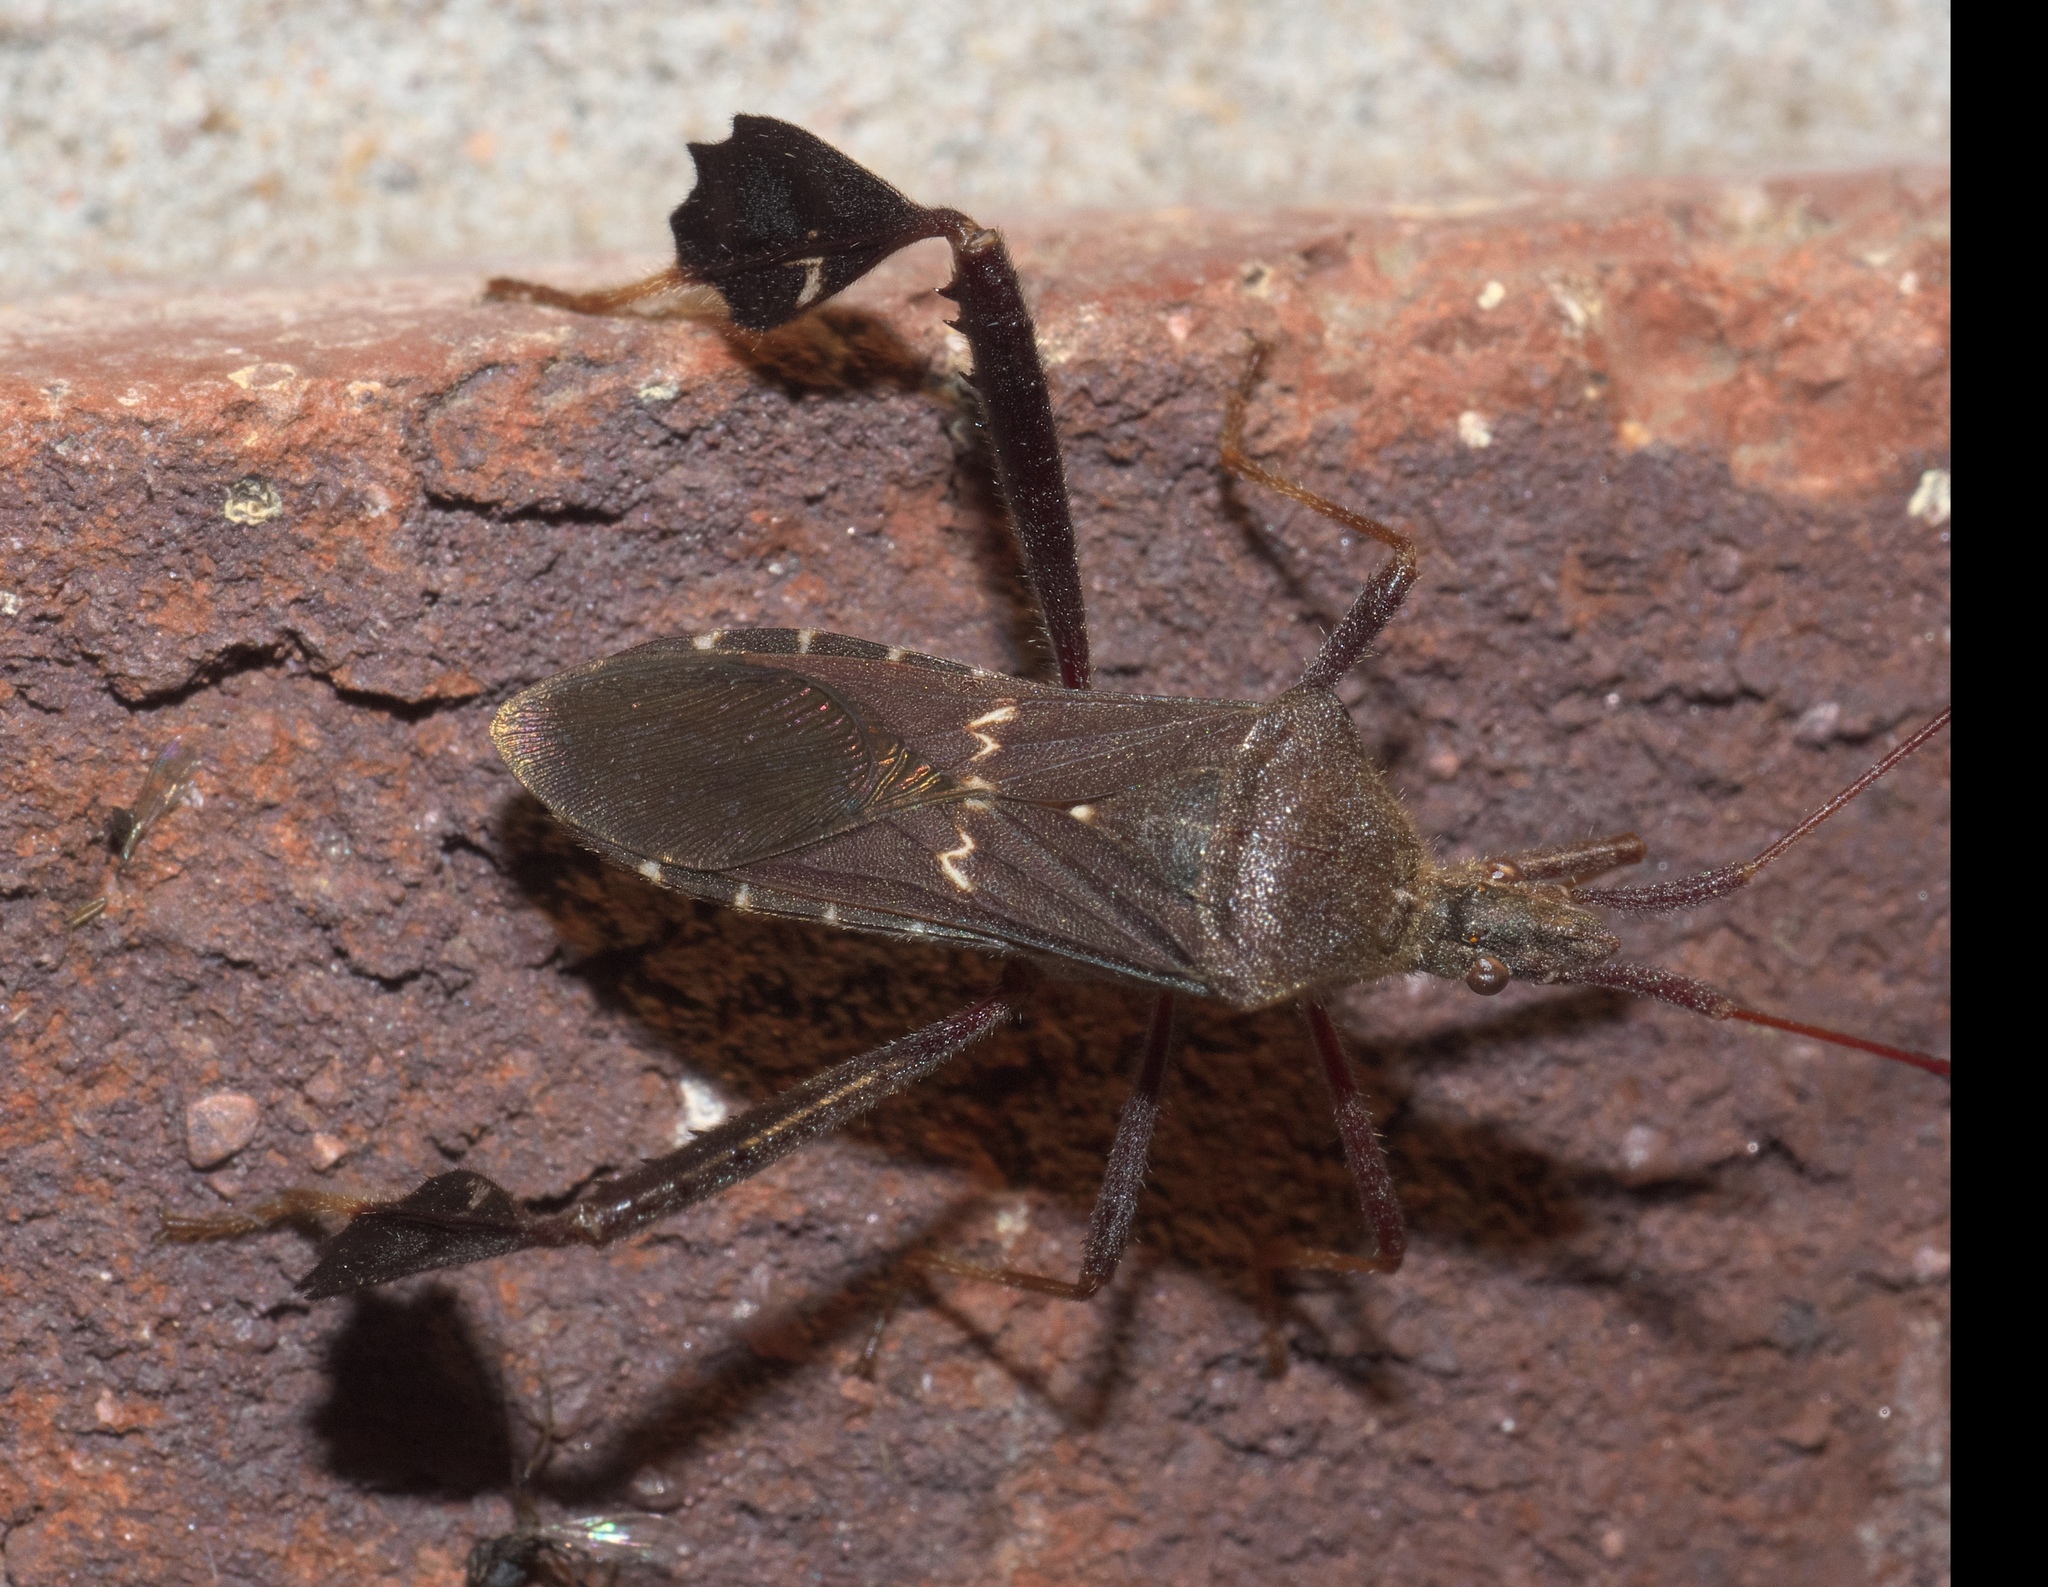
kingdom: Animalia
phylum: Arthropoda
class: Insecta
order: Hemiptera
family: Coreidae
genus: Leptoglossus
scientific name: Leptoglossus oppositus
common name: Northern leaf-footed bug
